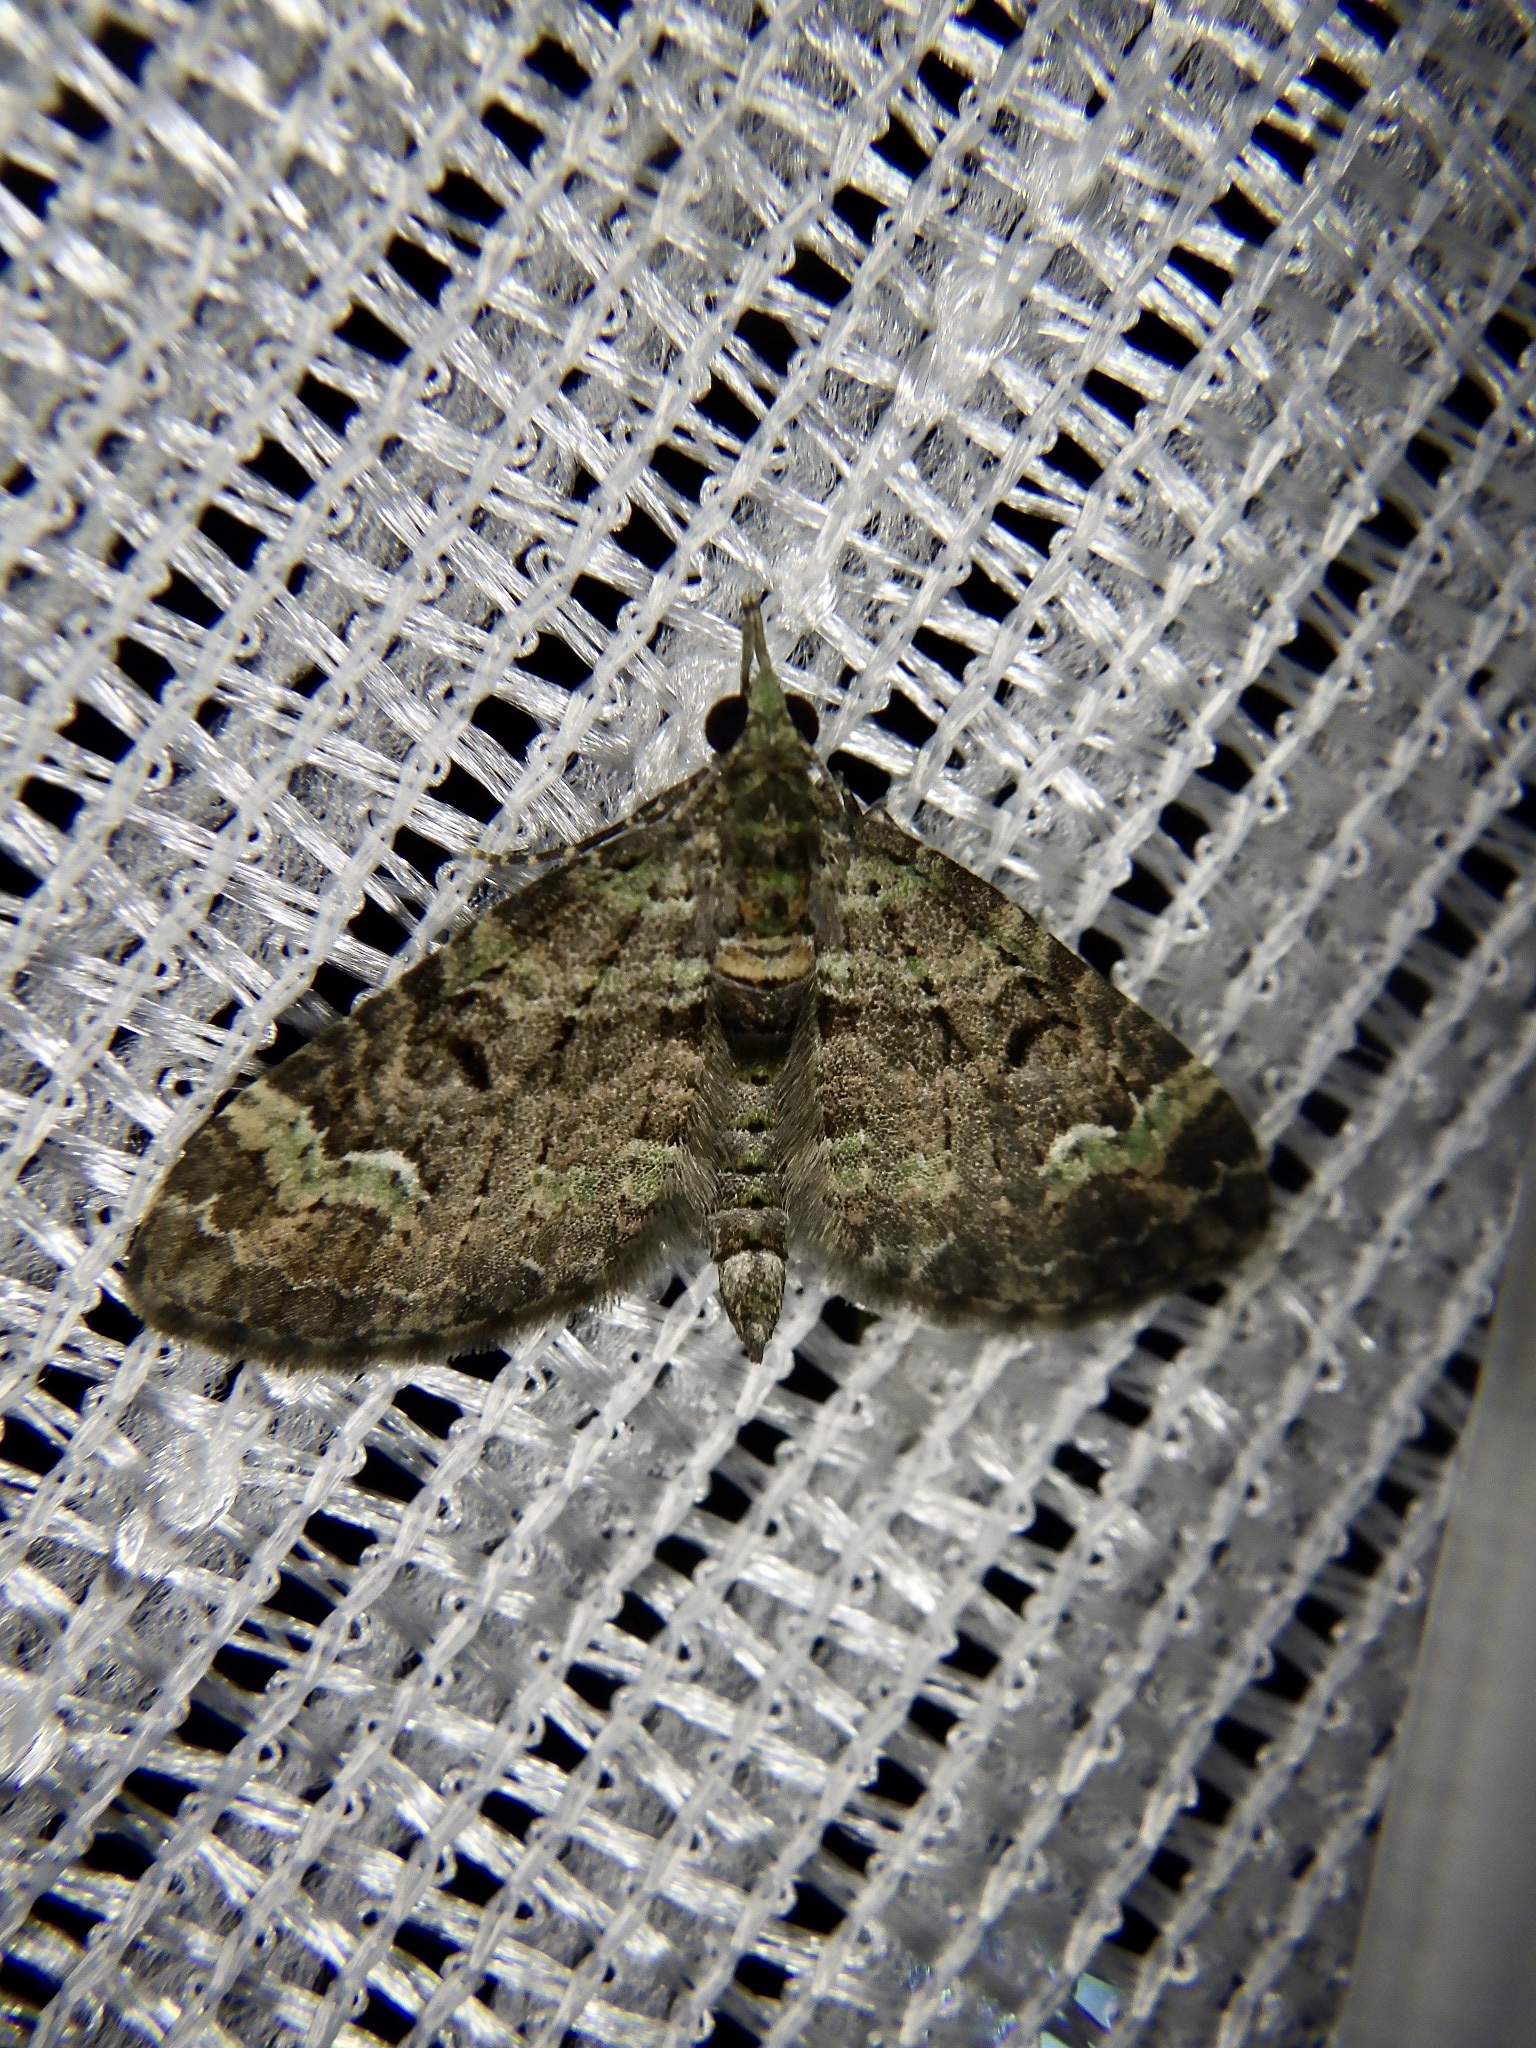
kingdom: Animalia
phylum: Arthropoda
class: Insecta
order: Lepidoptera
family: Geometridae
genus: Chloroclystis
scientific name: Chloroclystis
